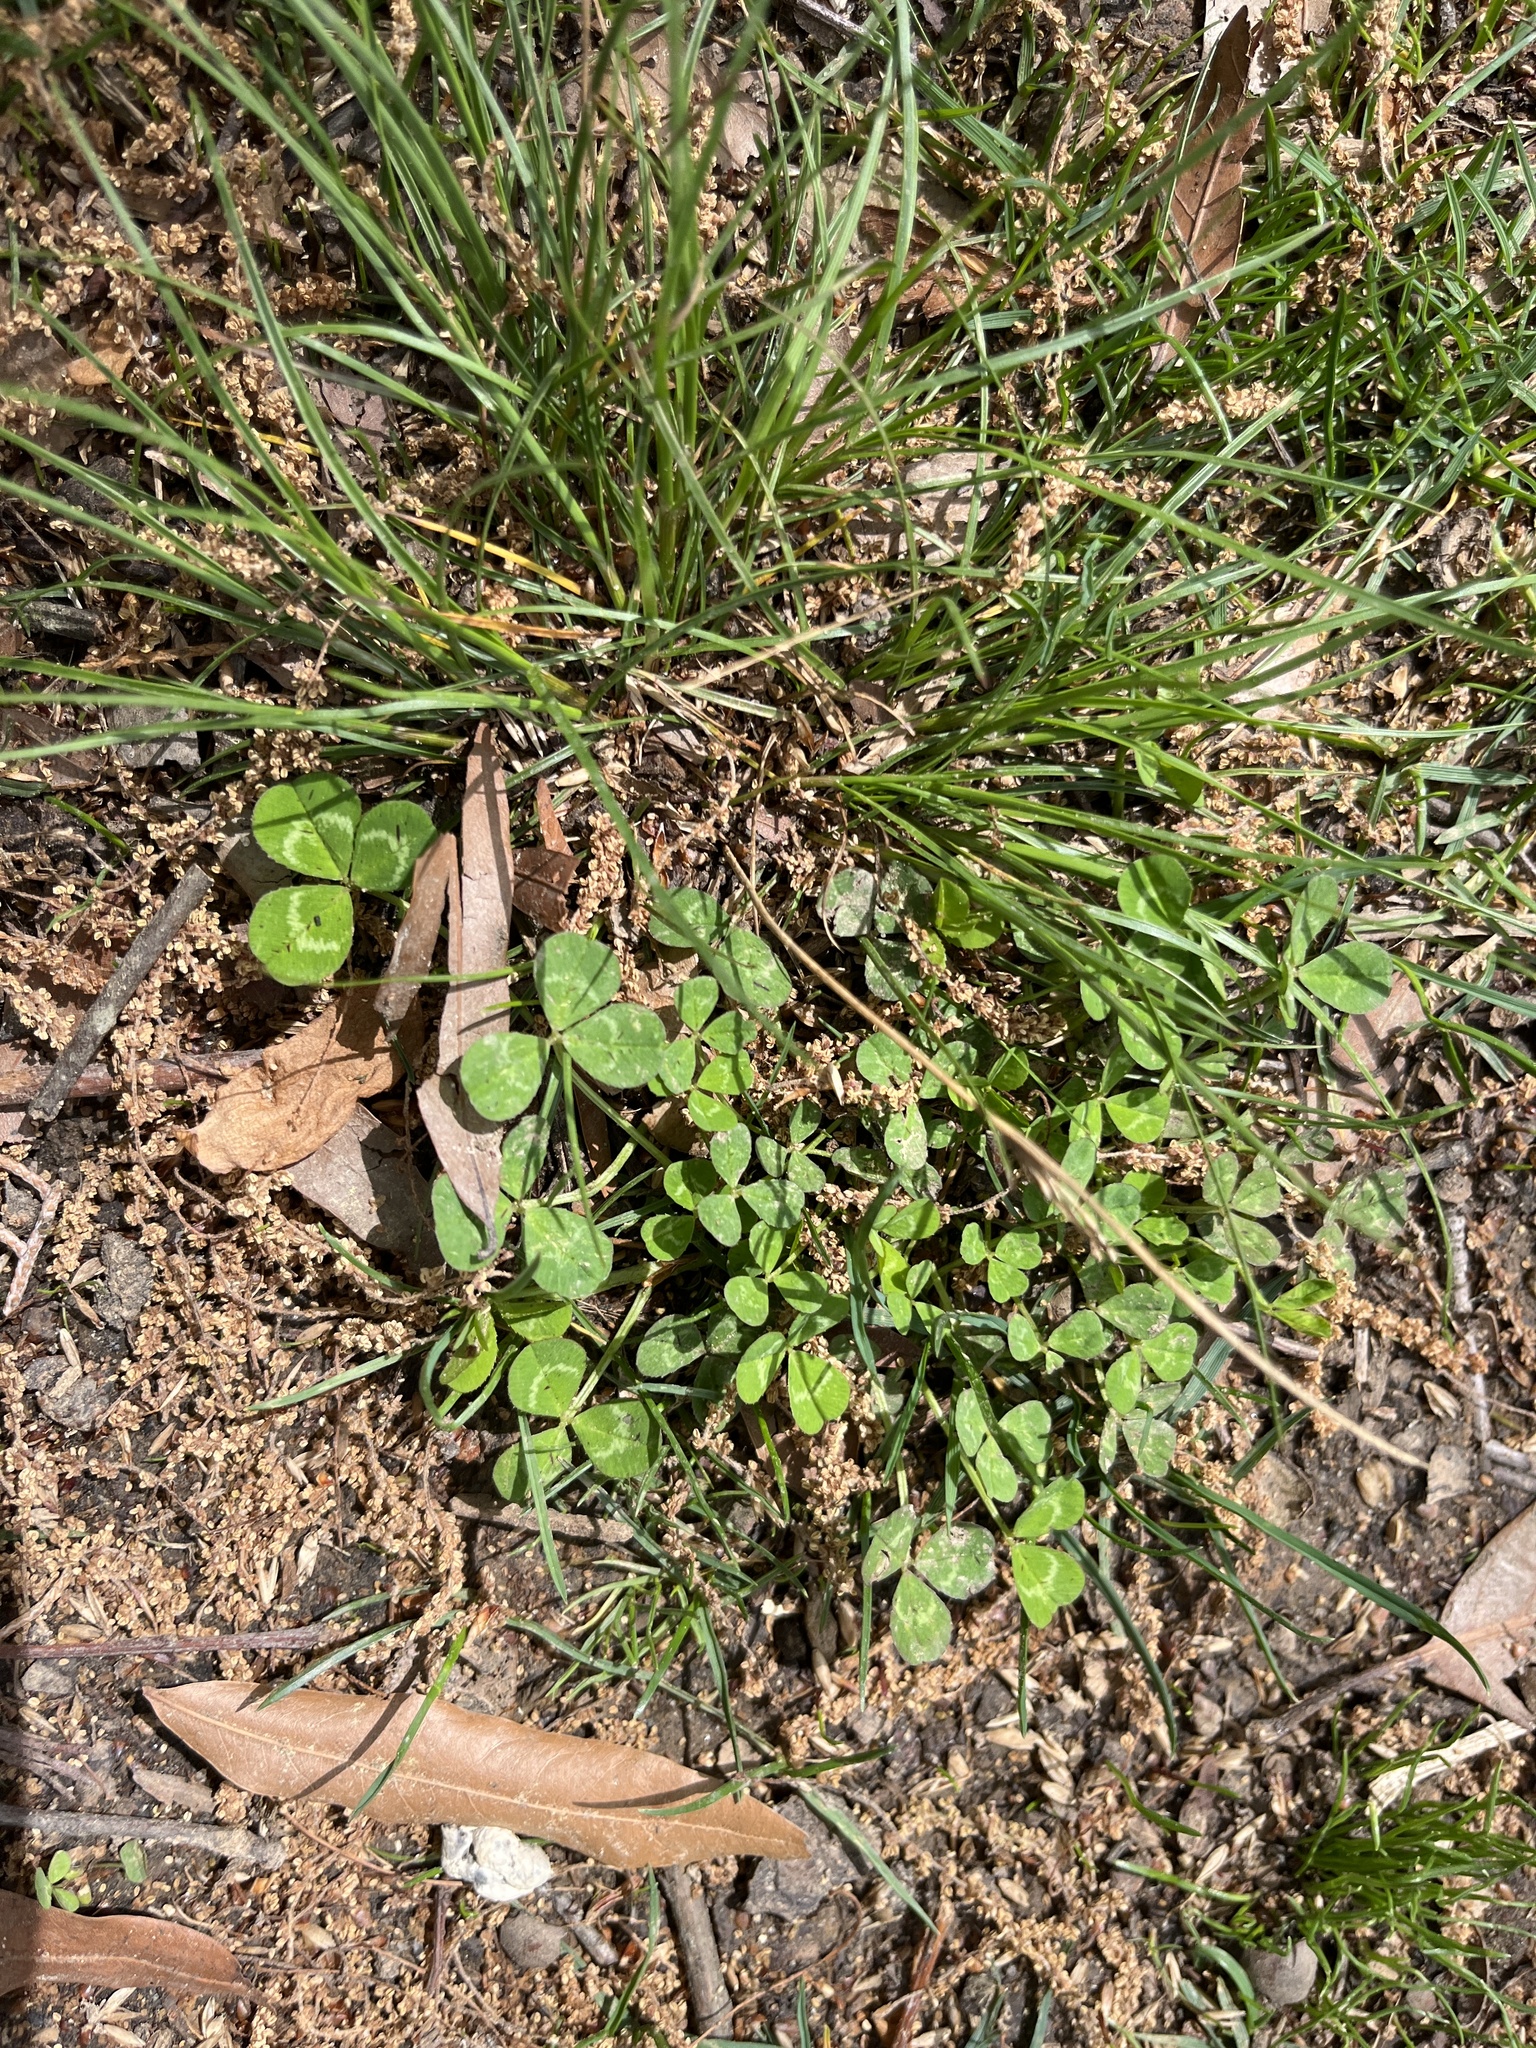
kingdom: Plantae
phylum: Tracheophyta
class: Magnoliopsida
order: Fabales
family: Fabaceae
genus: Trifolium
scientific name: Trifolium repens
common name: White clover
